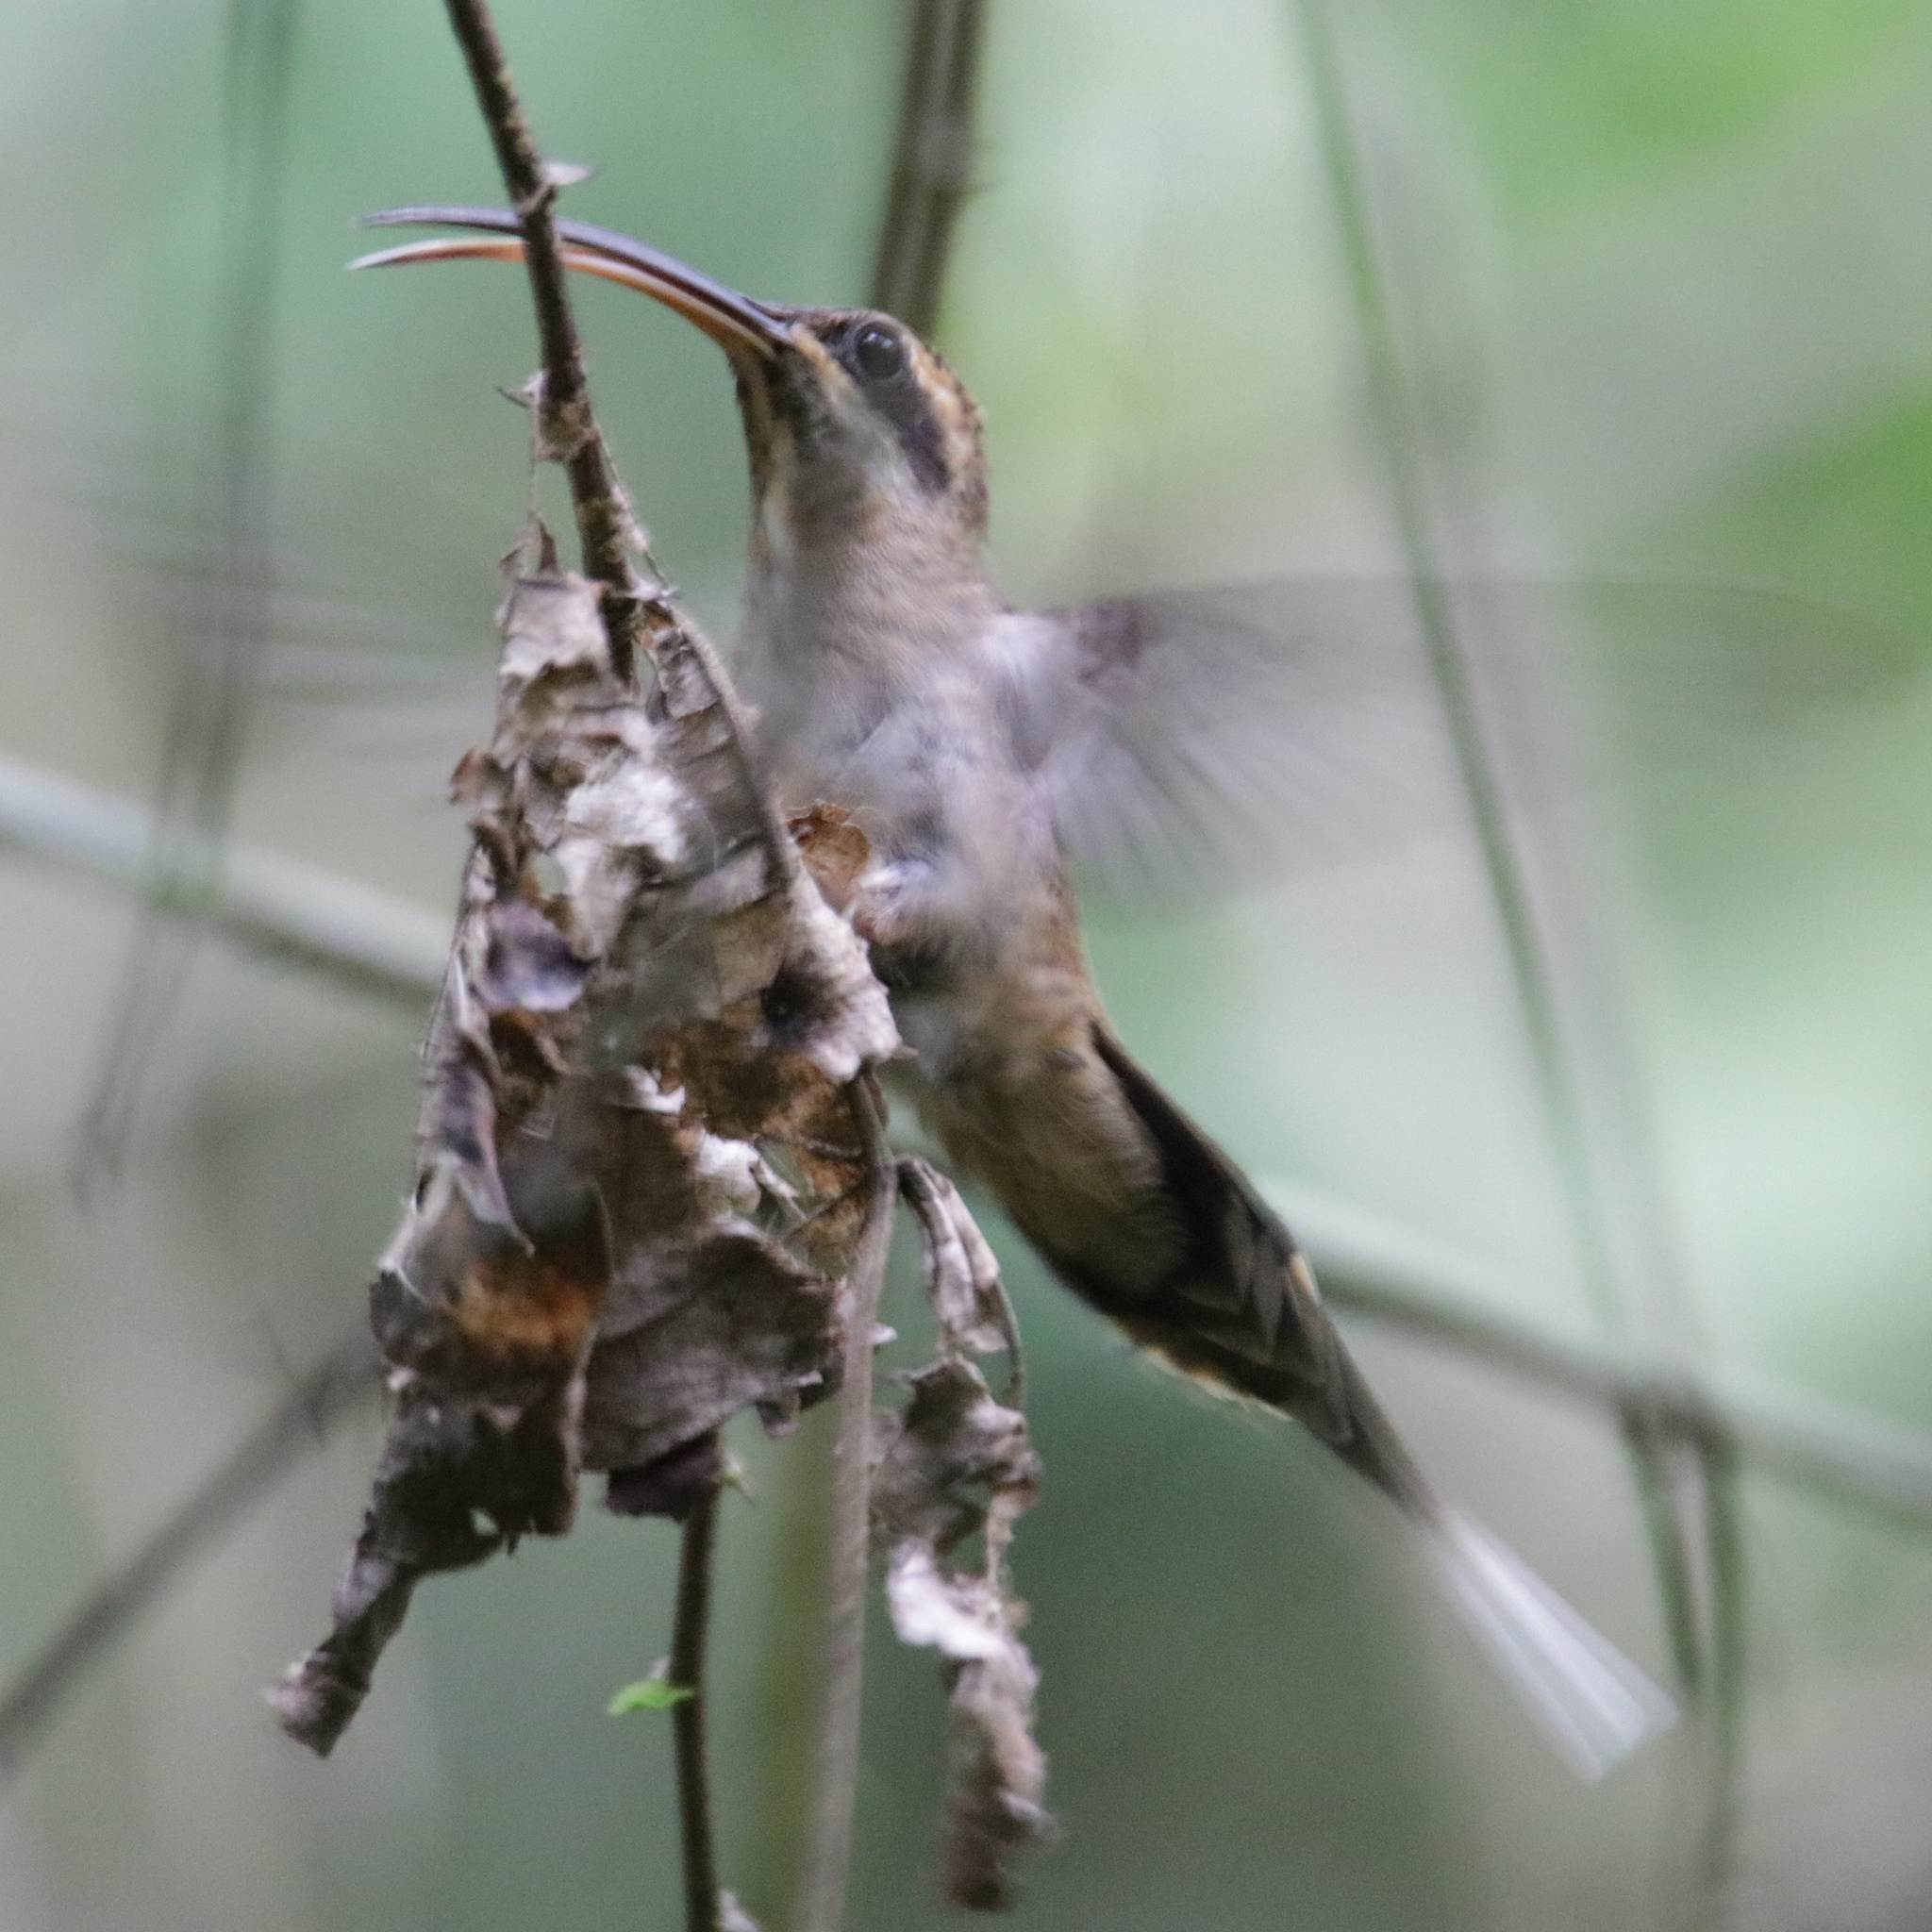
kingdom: Animalia
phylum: Chordata
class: Aves
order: Apodiformes
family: Trochilidae
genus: Phaethornis
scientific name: Phaethornis longirostris
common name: Long-billed hermit
